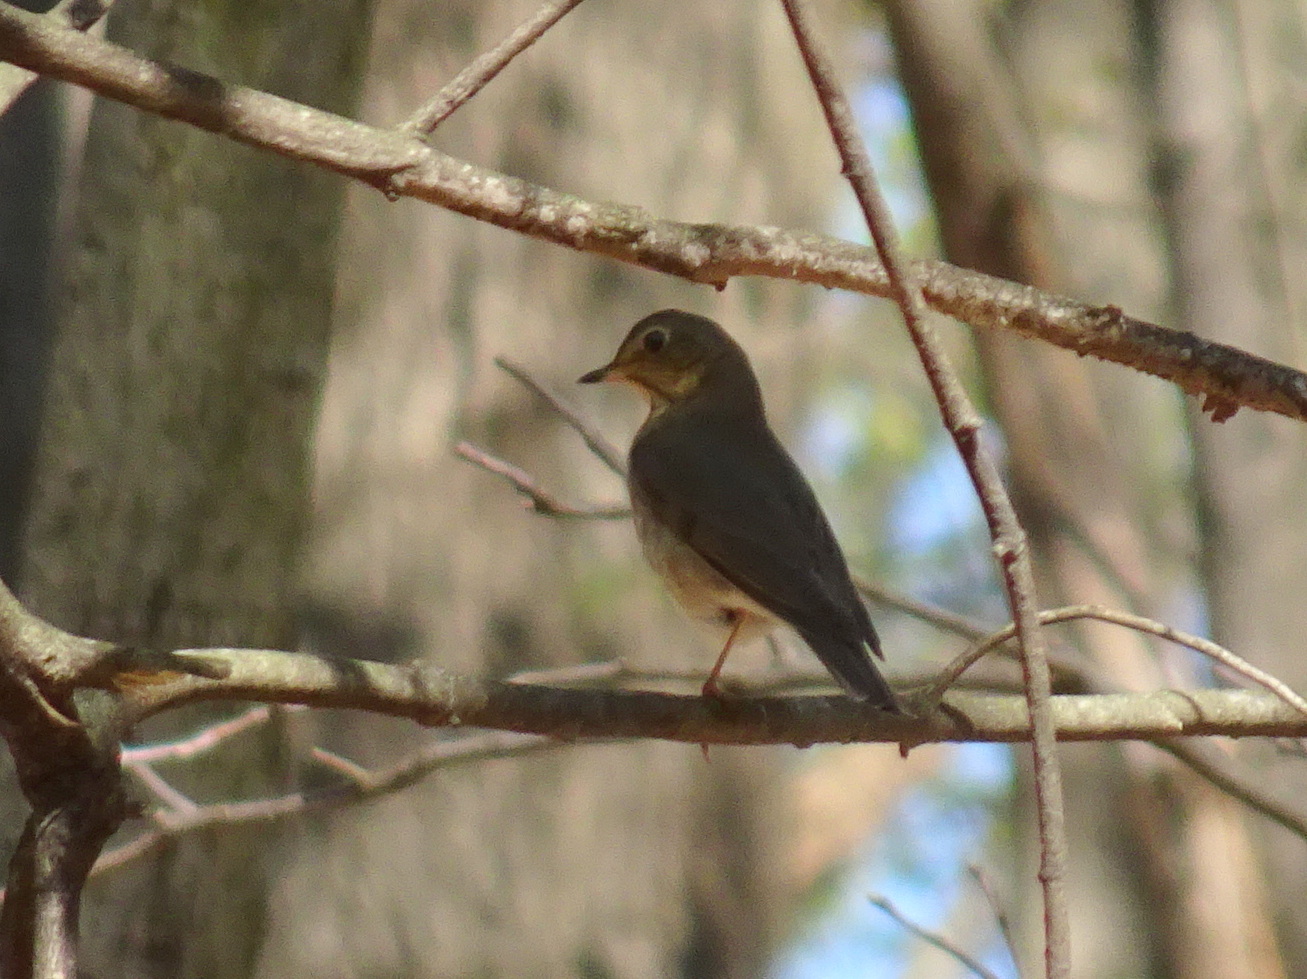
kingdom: Animalia
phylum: Chordata
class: Aves
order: Passeriformes
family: Turdidae
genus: Catharus
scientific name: Catharus ustulatus
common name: Swainson's thrush
